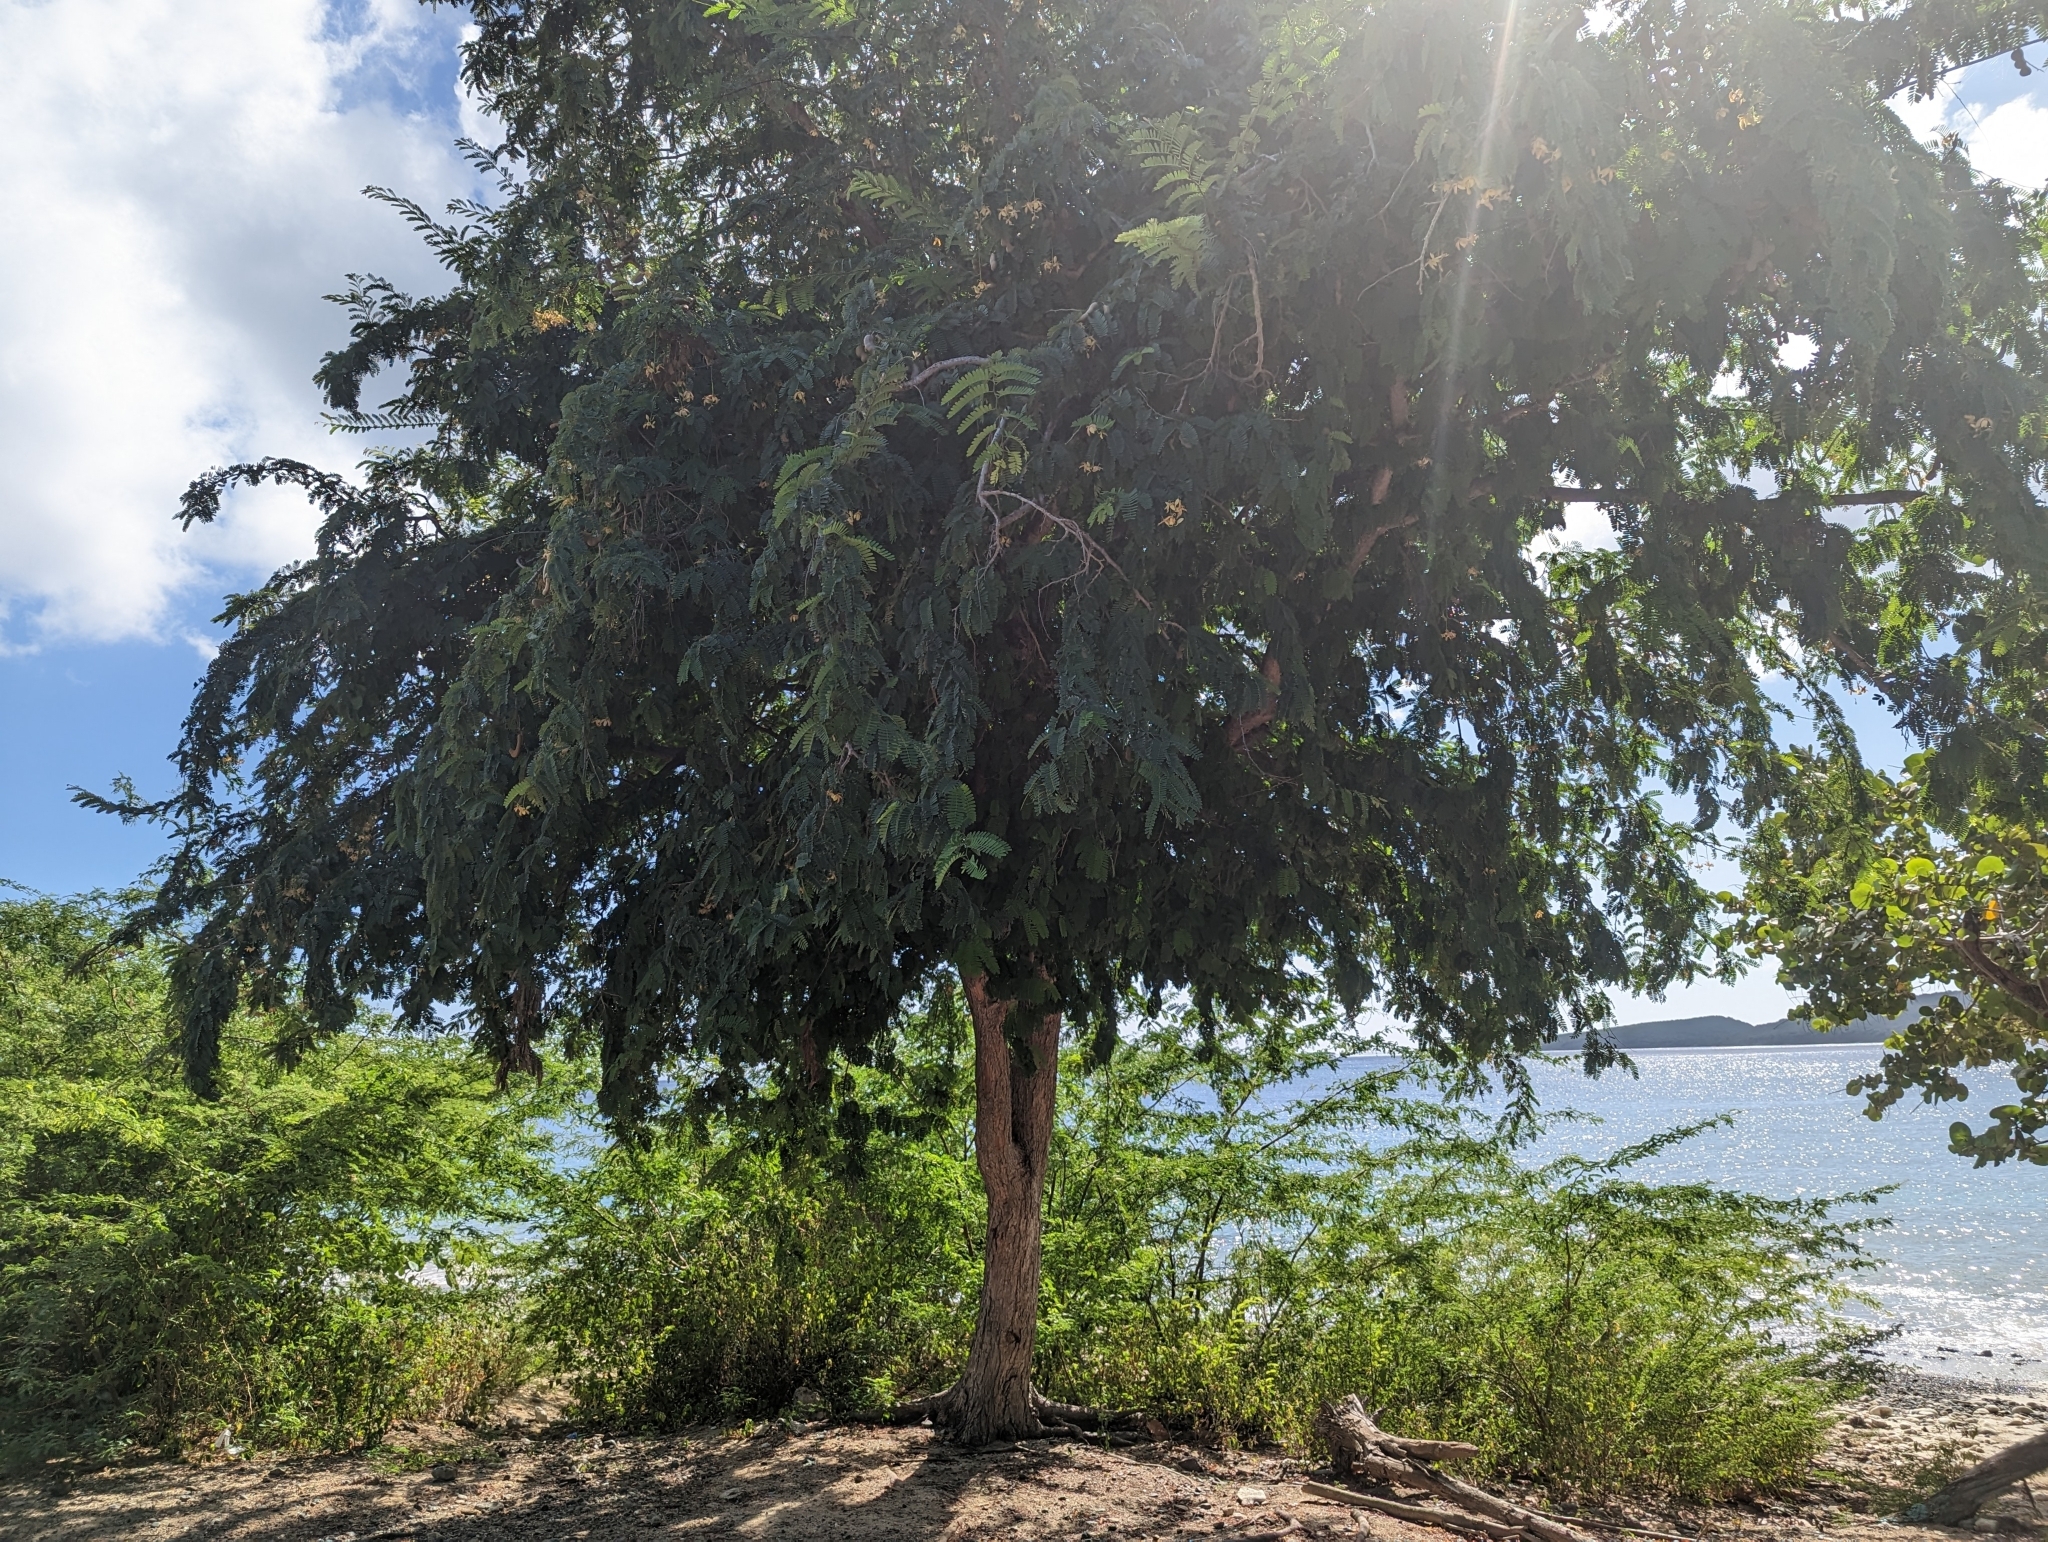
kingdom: Plantae
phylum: Tracheophyta
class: Magnoliopsida
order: Fabales
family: Fabaceae
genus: Tamarindus
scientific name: Tamarindus indica
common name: Tamarind
